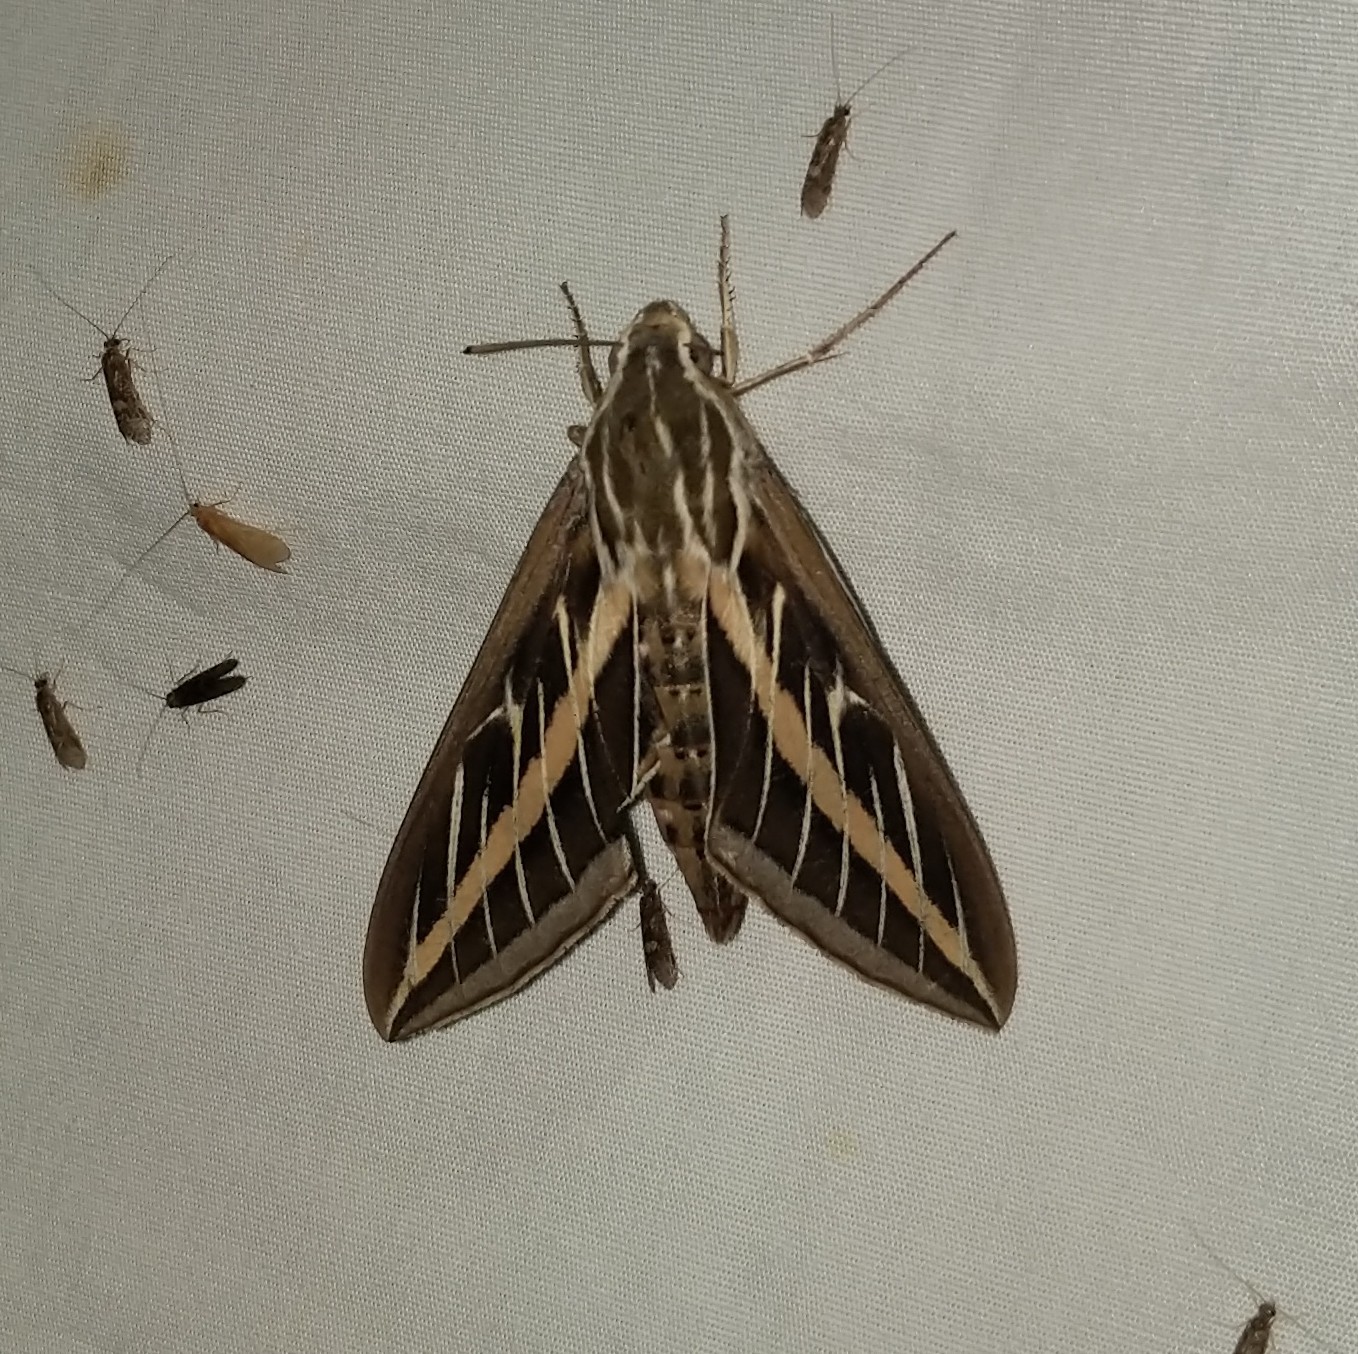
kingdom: Animalia
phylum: Arthropoda
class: Insecta
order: Lepidoptera
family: Sphingidae
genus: Hyles
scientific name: Hyles lineata
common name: White-lined sphinx
